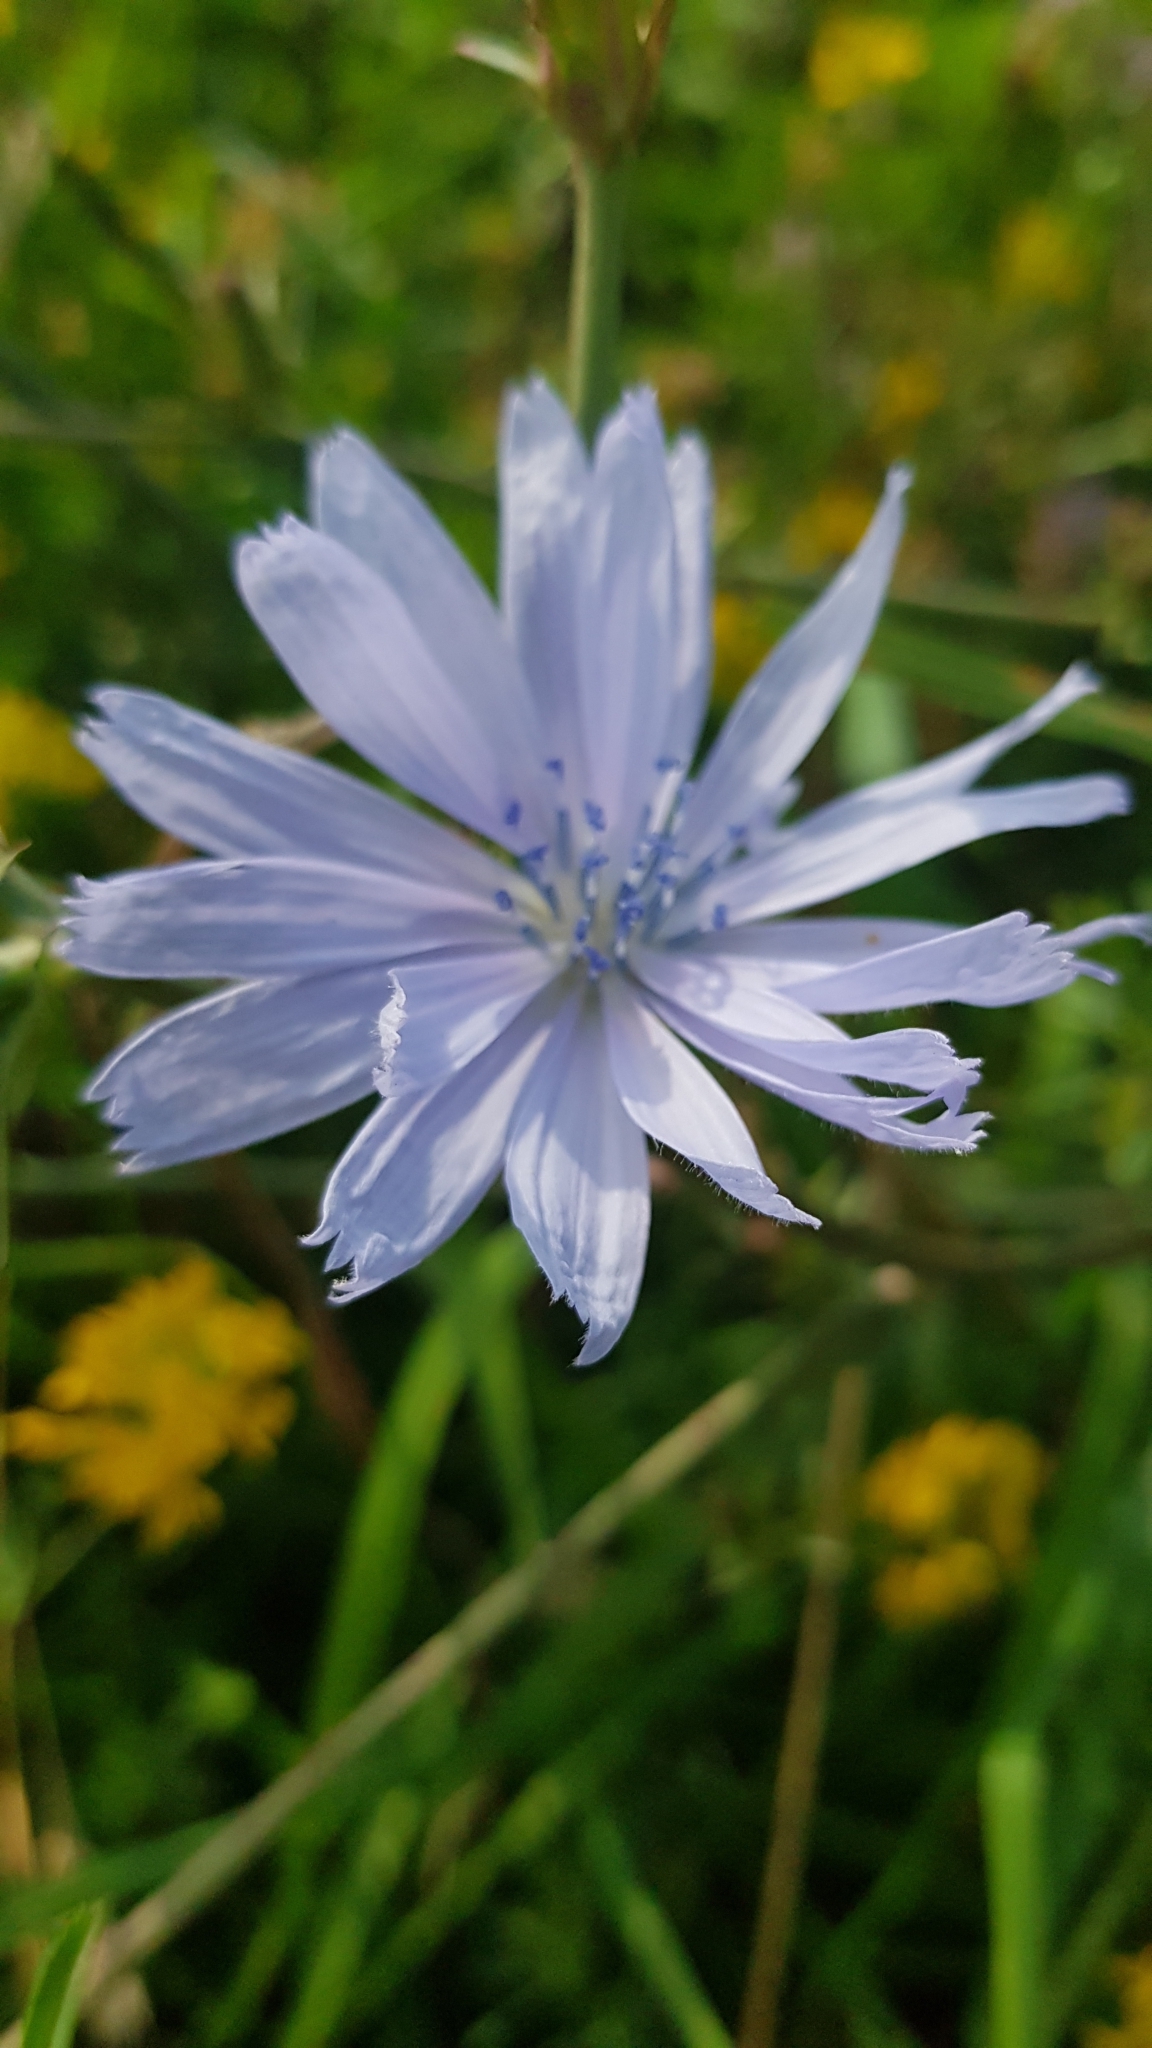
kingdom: Plantae
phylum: Tracheophyta
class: Magnoliopsida
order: Asterales
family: Asteraceae
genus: Cichorium
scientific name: Cichorium intybus
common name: Chicory
